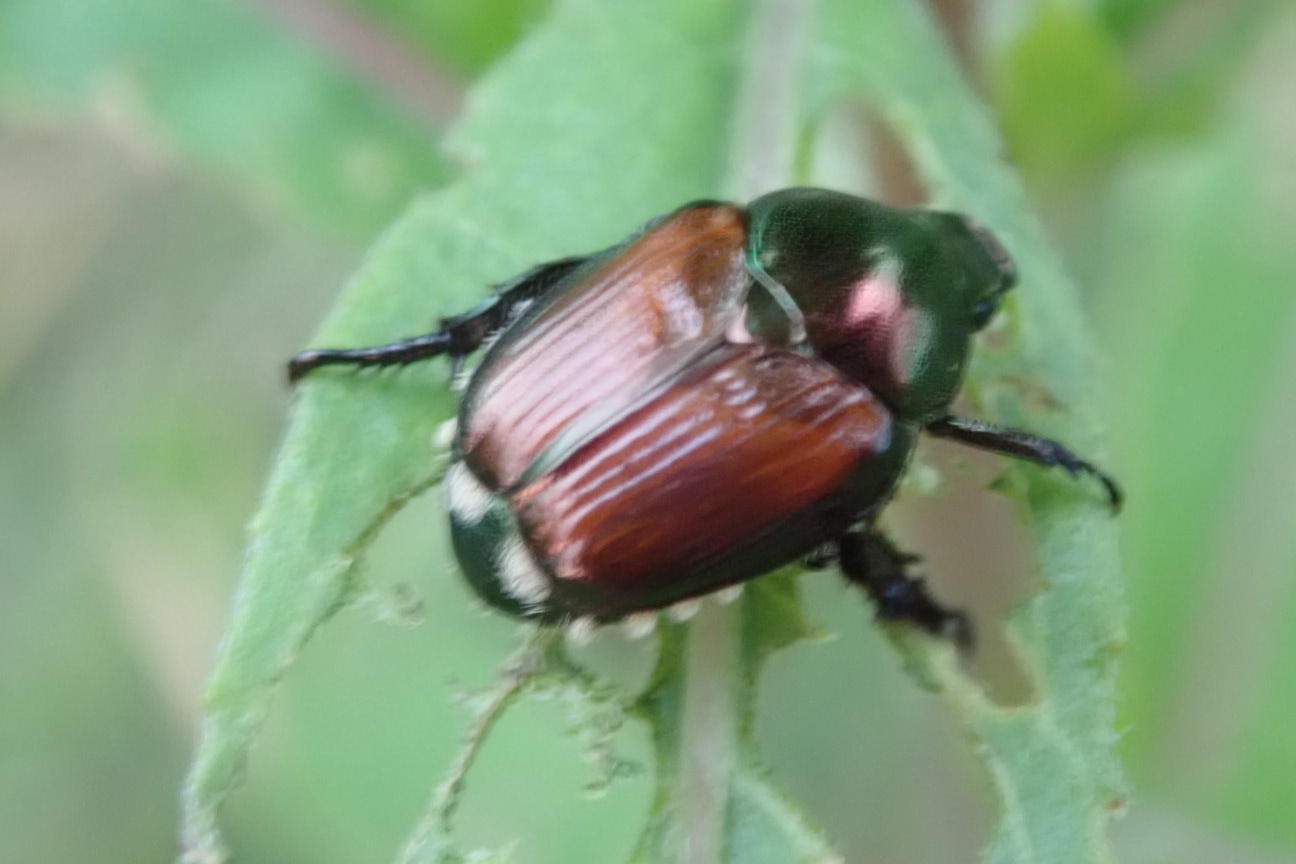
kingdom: Animalia
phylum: Arthropoda
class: Insecta
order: Coleoptera
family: Scarabaeidae
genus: Popillia
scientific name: Popillia japonica
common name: Japanese beetle
